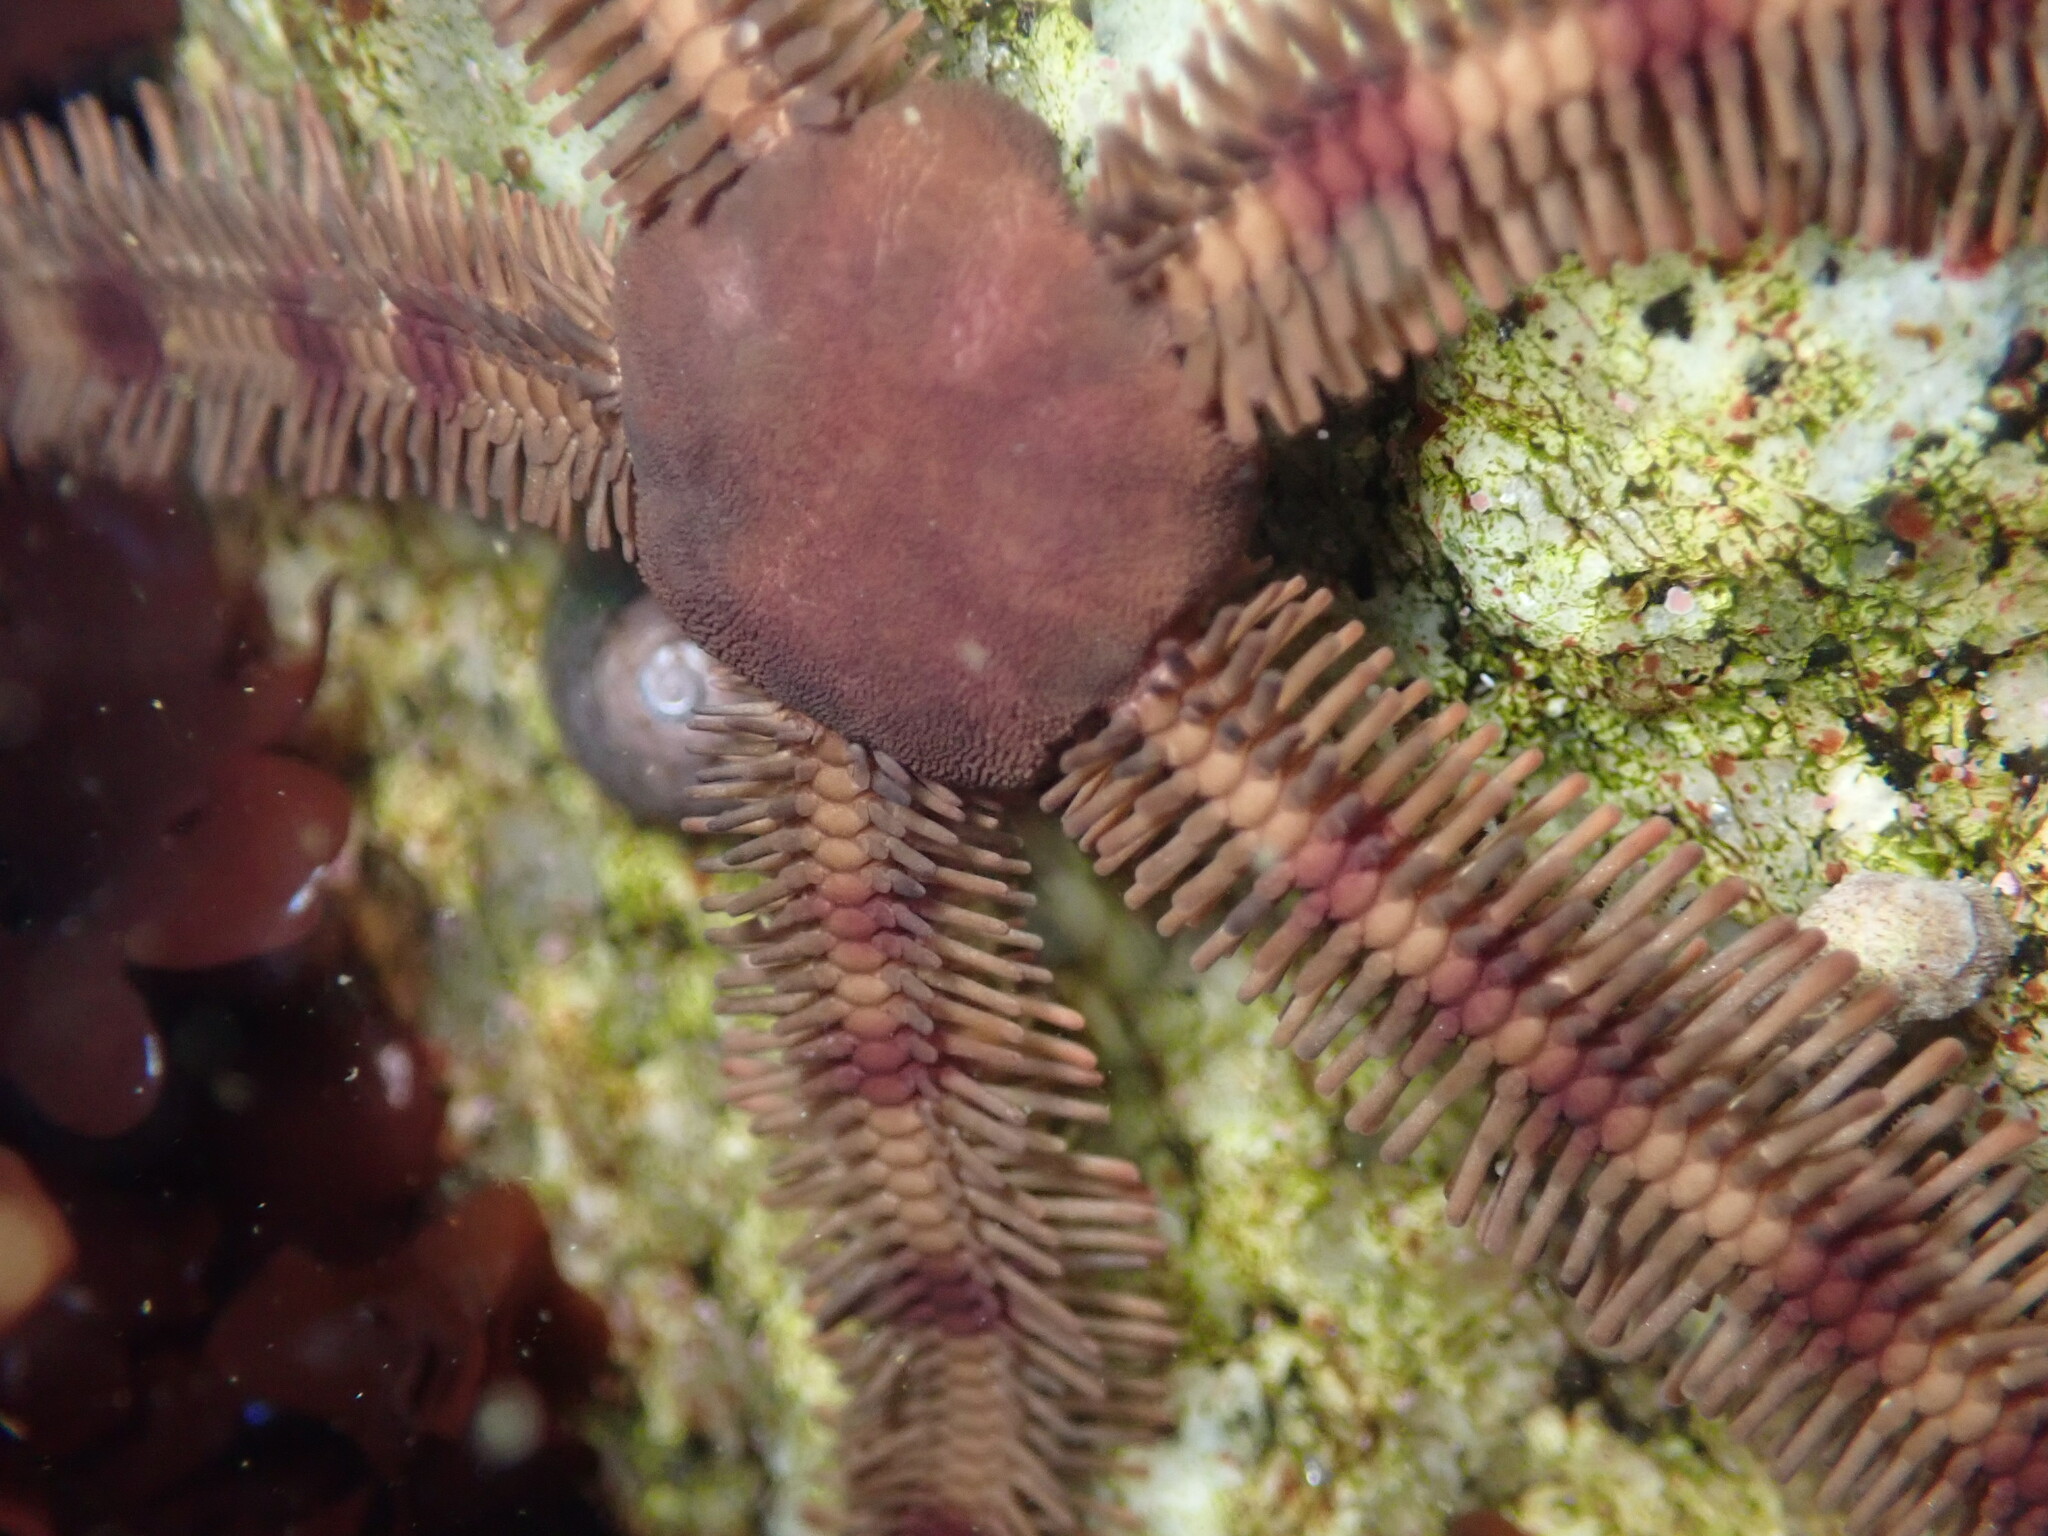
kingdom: Animalia
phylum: Echinodermata
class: Ophiuroidea
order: Ophiacanthida
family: Ophiopteridae
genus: Ophiopteris
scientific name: Ophiopteris papillosa
